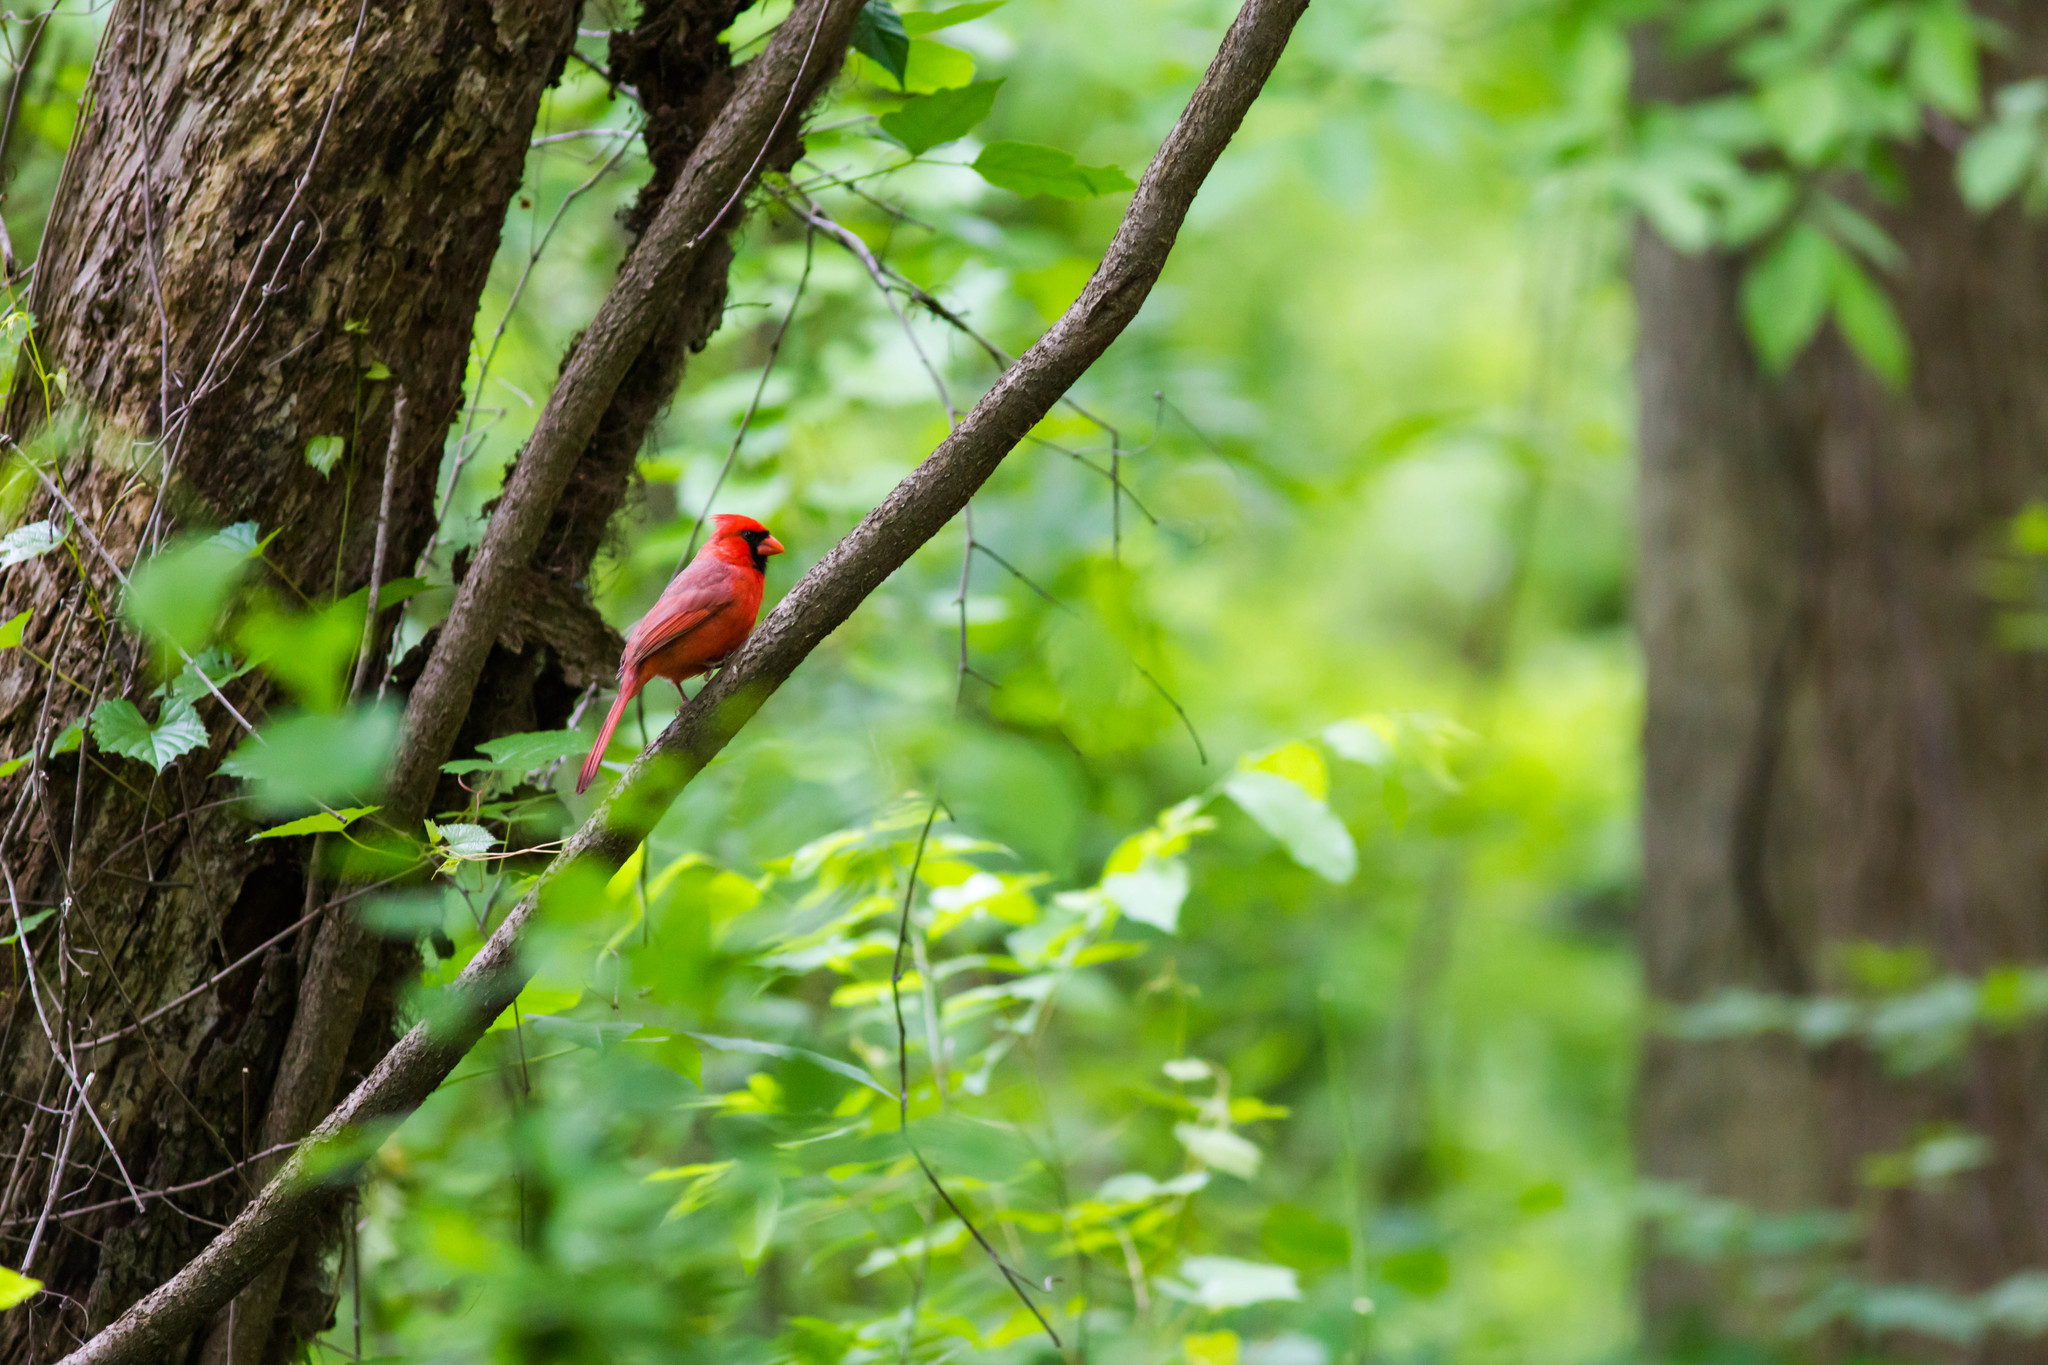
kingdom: Animalia
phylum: Chordata
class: Aves
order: Passeriformes
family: Cardinalidae
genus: Cardinalis
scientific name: Cardinalis cardinalis
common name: Northern cardinal
